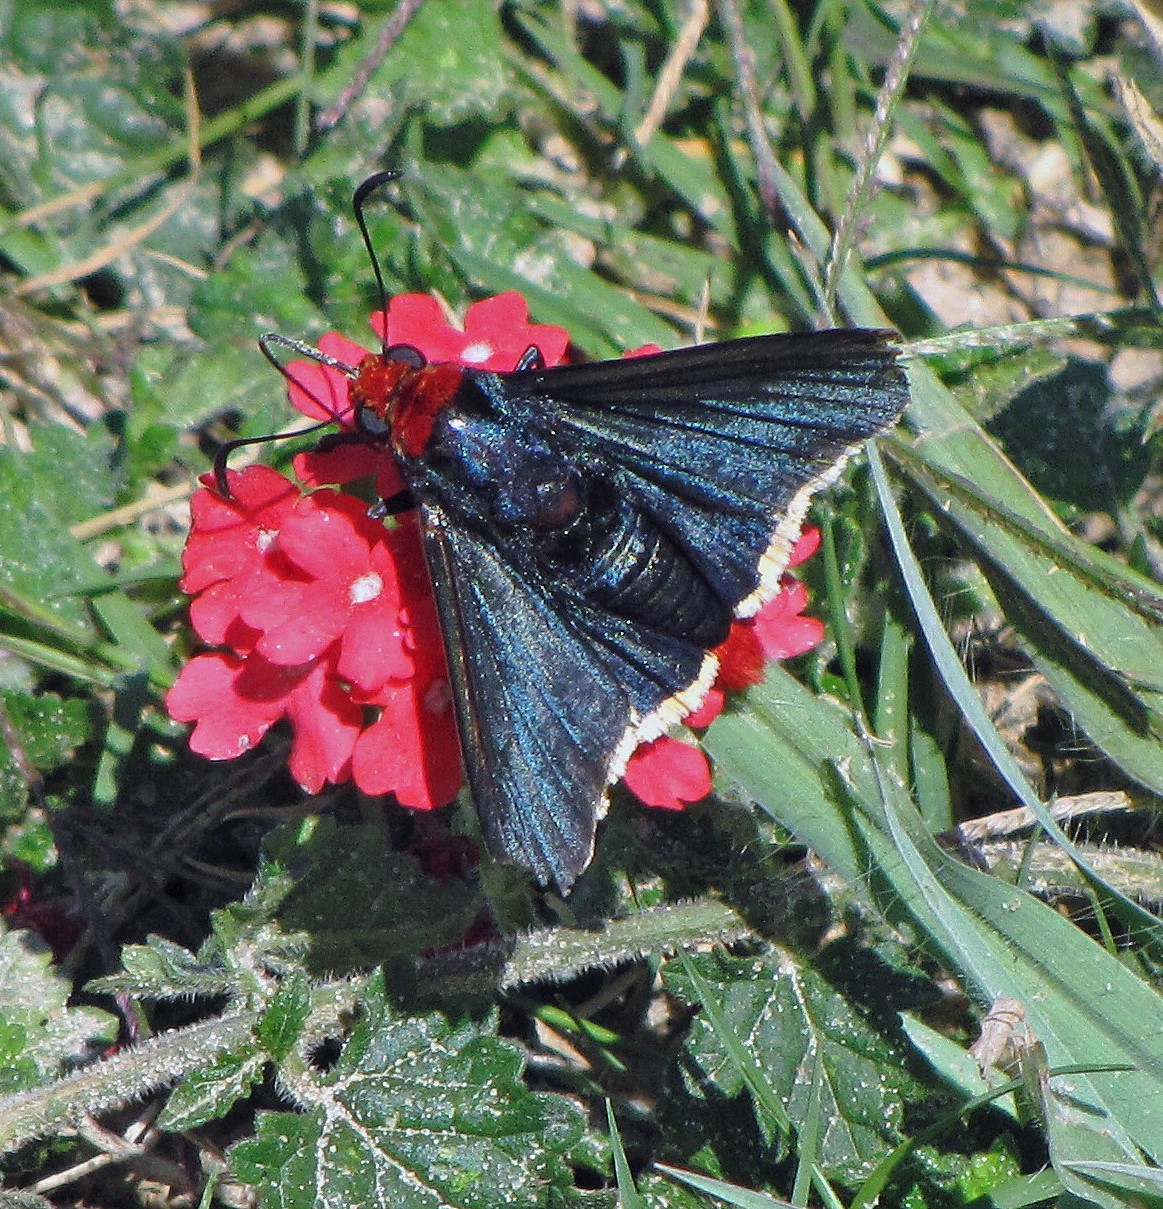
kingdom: Animalia
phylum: Arthropoda
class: Insecta
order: Lepidoptera
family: Hesperiidae
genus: Pyrrhopyge
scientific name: Pyrrhopyge pelota
